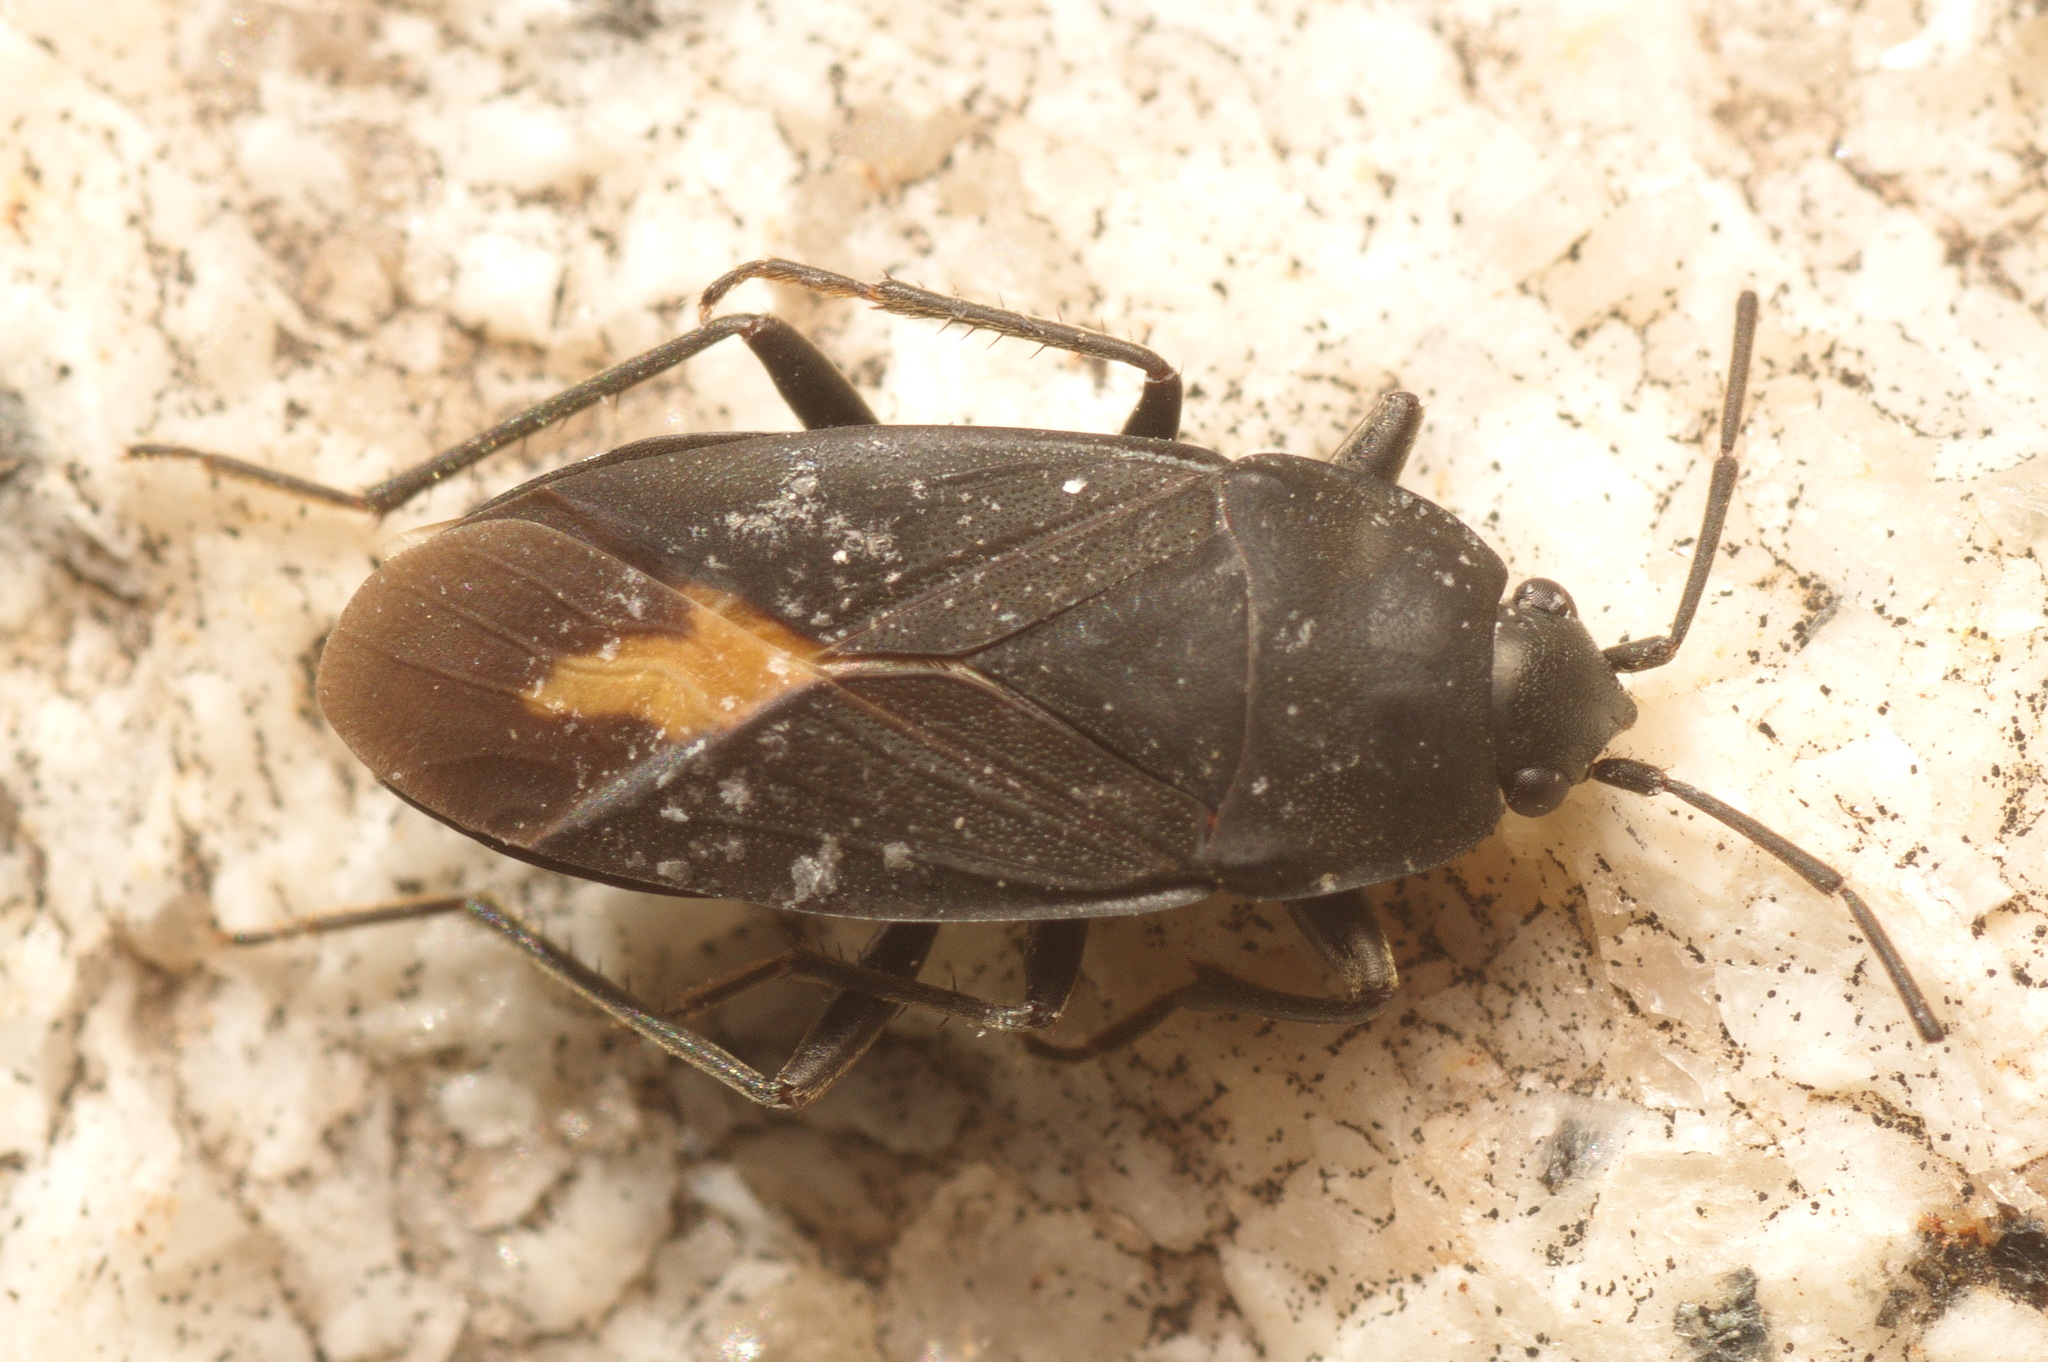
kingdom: Animalia
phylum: Arthropoda
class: Insecta
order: Hemiptera
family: Rhyparochromidae
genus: Aphanus
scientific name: Aphanus rolandri
